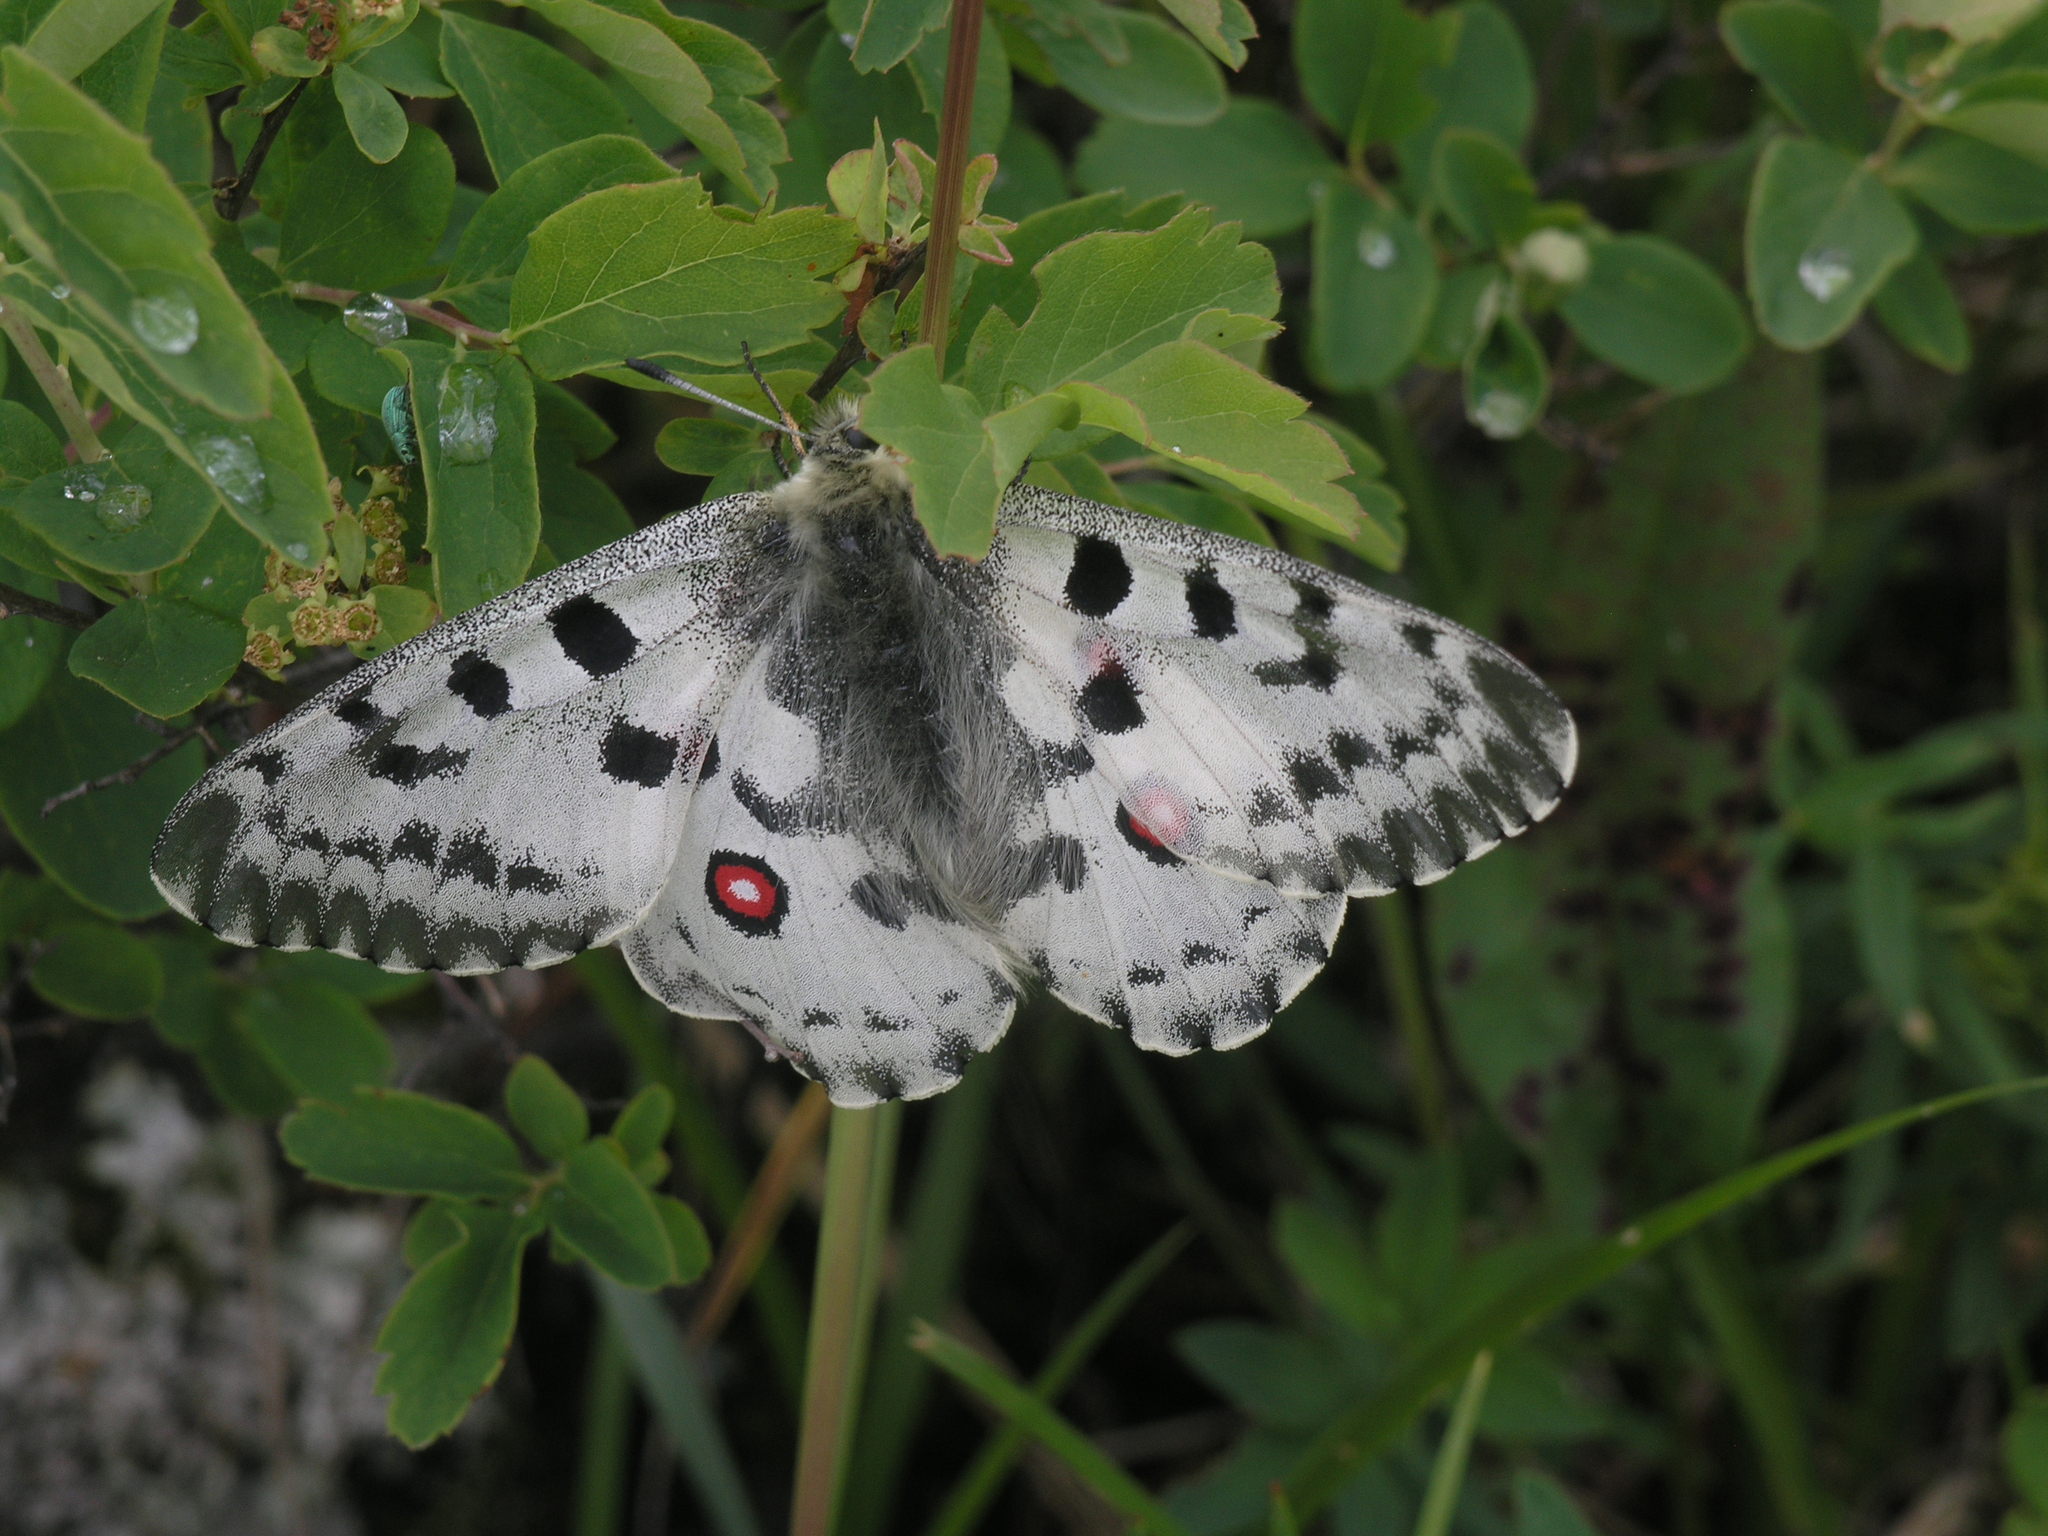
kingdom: Animalia
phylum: Arthropoda
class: Insecta
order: Lepidoptera
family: Papilionidae
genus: Parnassius
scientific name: Parnassius nomion
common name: Nomion apollo
